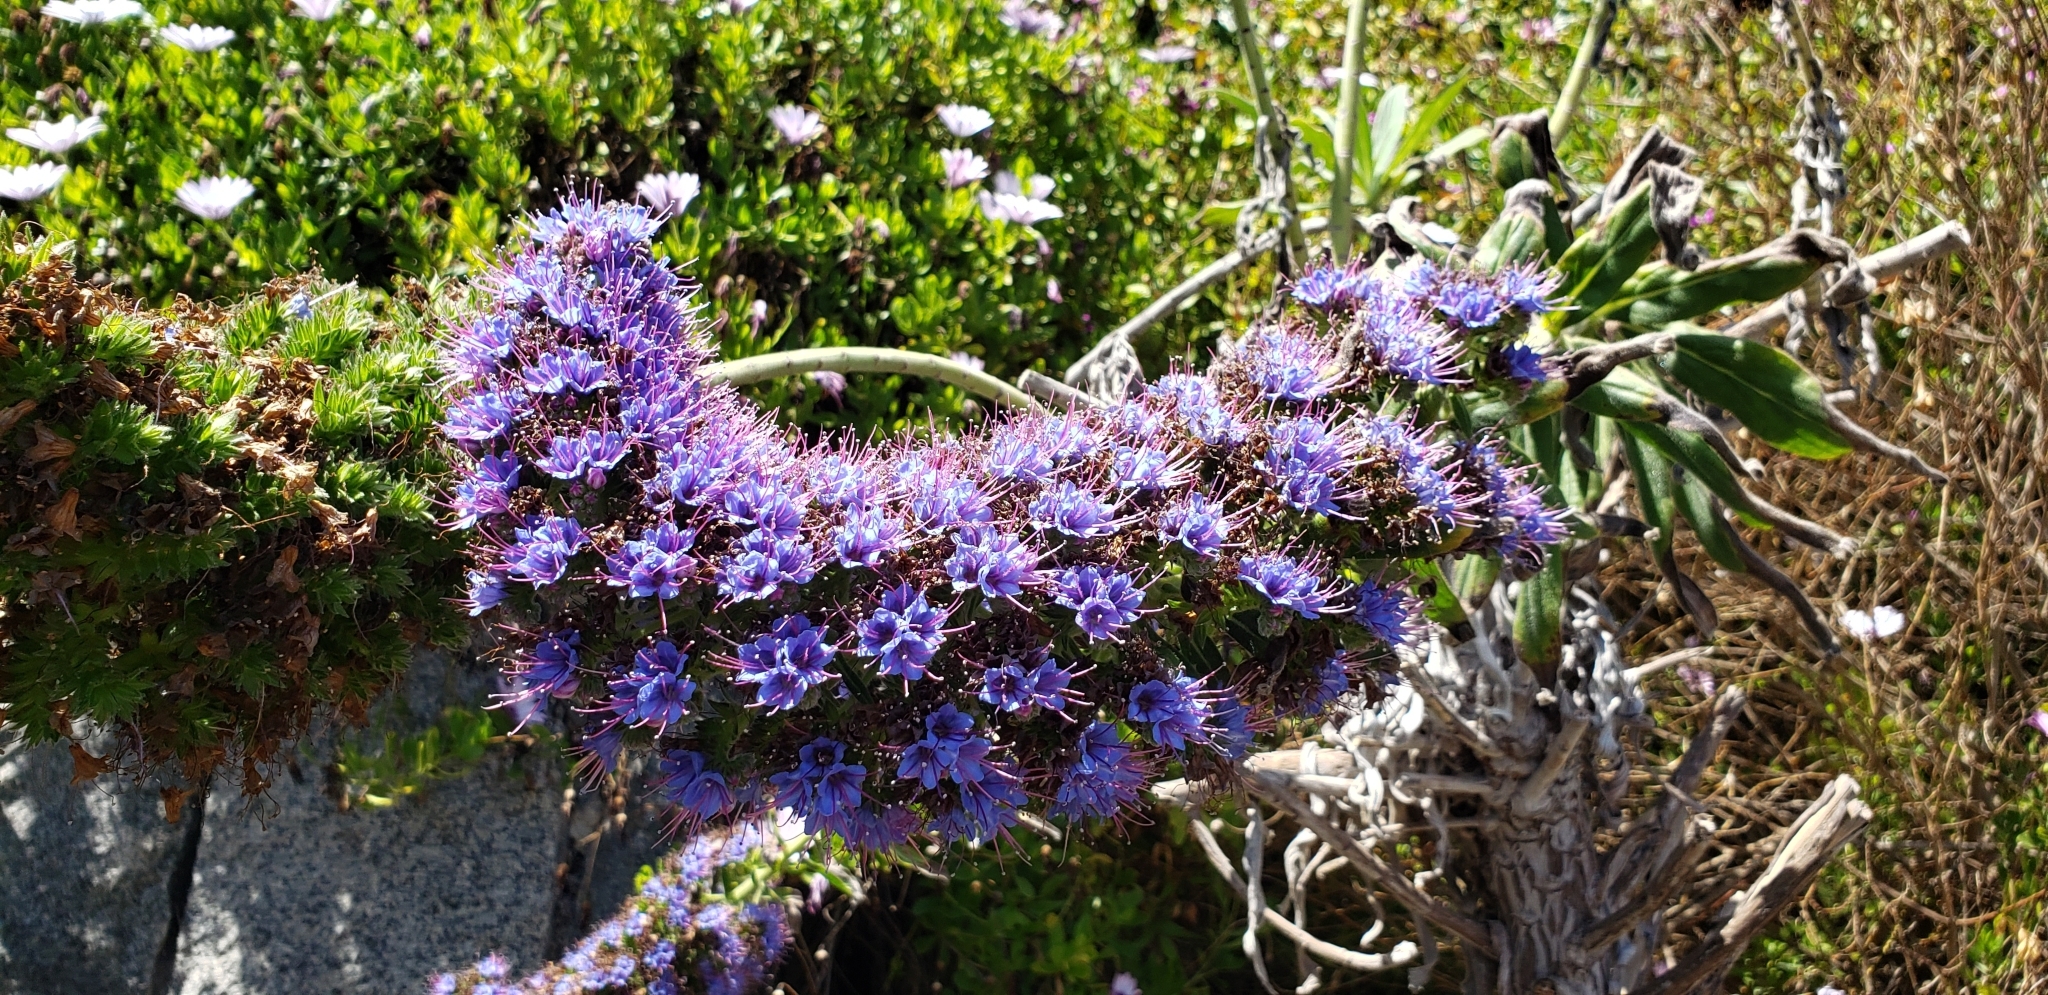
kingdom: Plantae
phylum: Tracheophyta
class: Magnoliopsida
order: Boraginales
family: Boraginaceae
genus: Echium
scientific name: Echium candicans
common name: Pride of madeira
